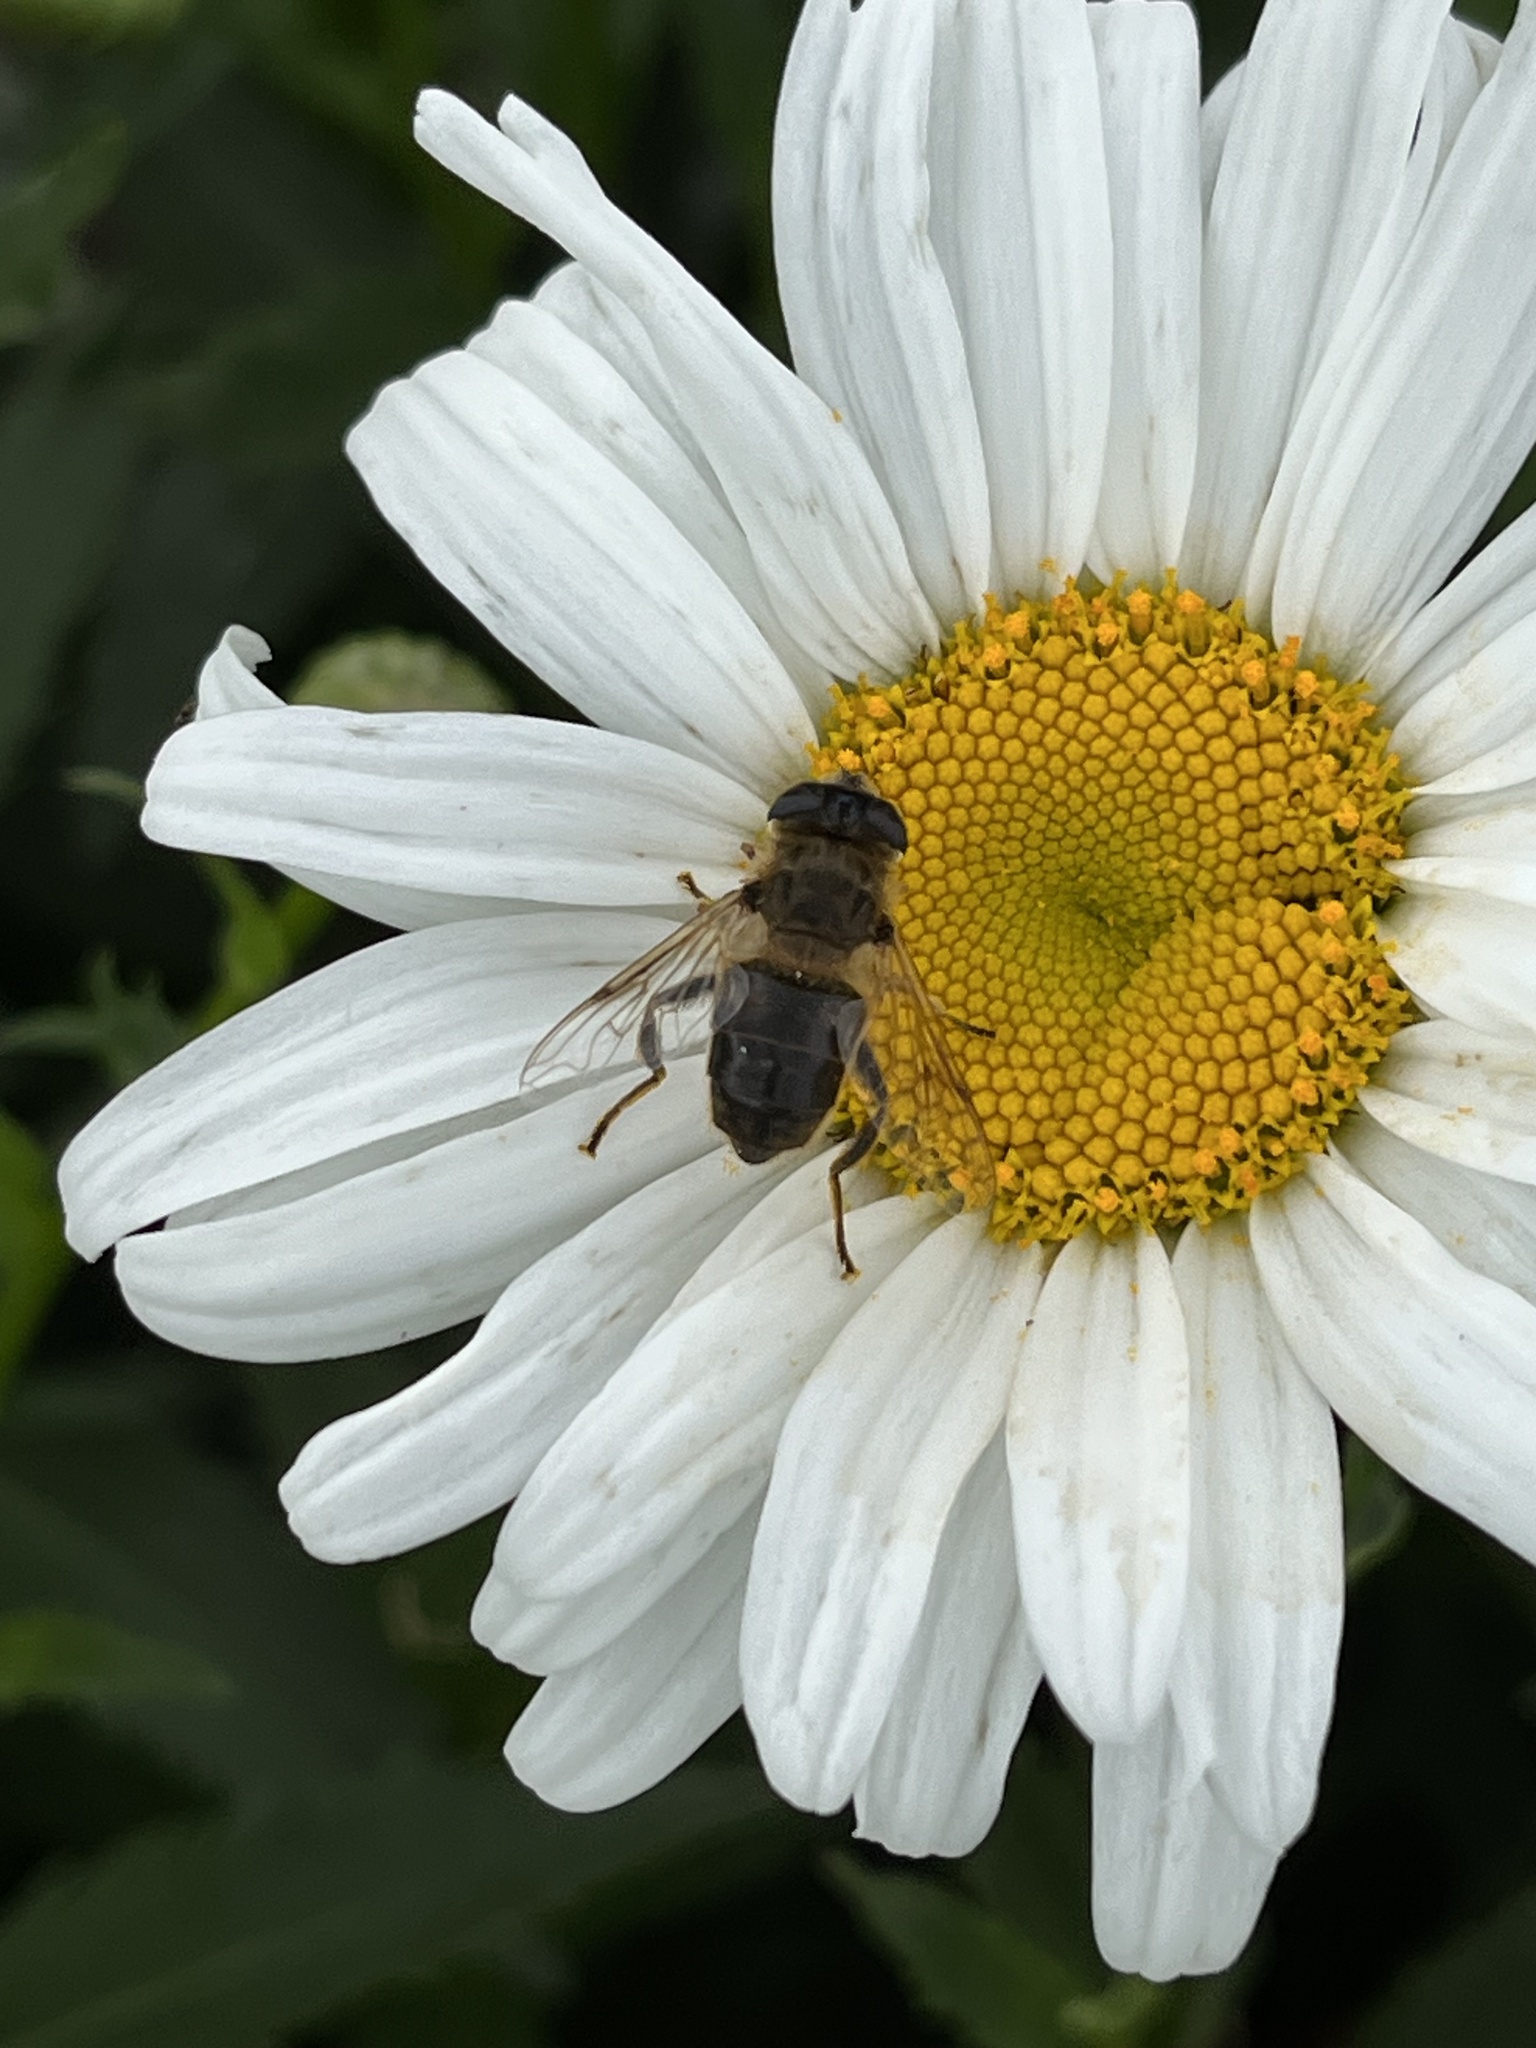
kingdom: Animalia
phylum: Arthropoda
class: Insecta
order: Diptera
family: Syrphidae
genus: Eristalis
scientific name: Eristalis tenax
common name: Drone fly
